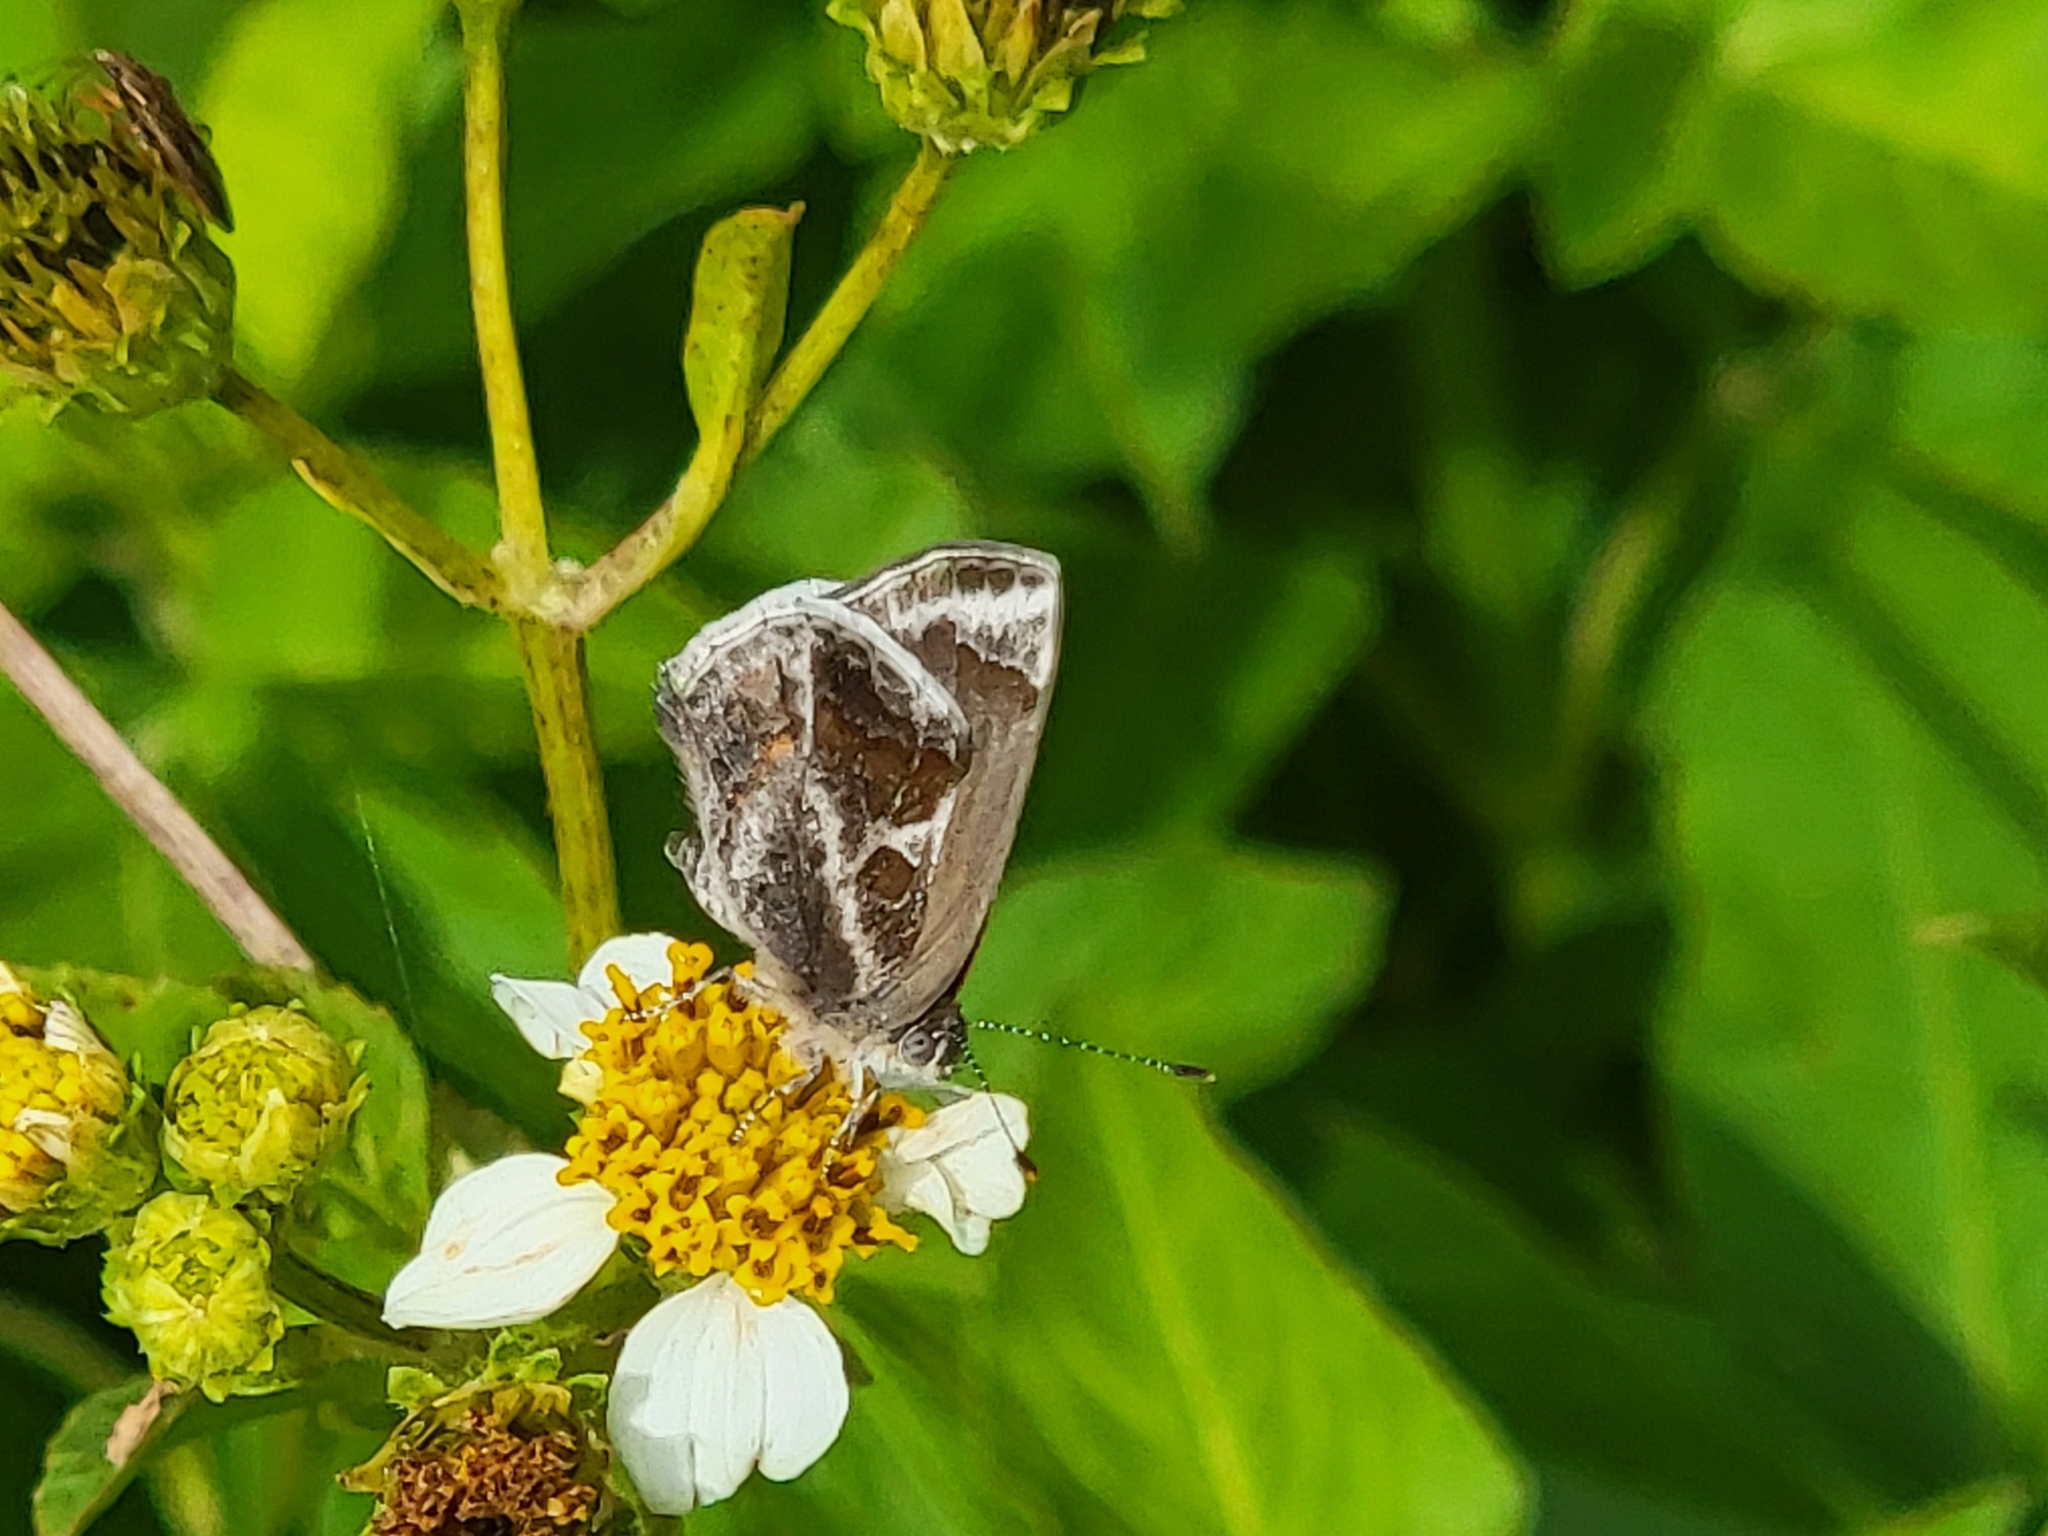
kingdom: Animalia
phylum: Arthropoda
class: Insecta
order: Lepidoptera
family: Lycaenidae
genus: Strymon
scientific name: Strymon bazochii
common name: Lantana scrub-hairstreak
